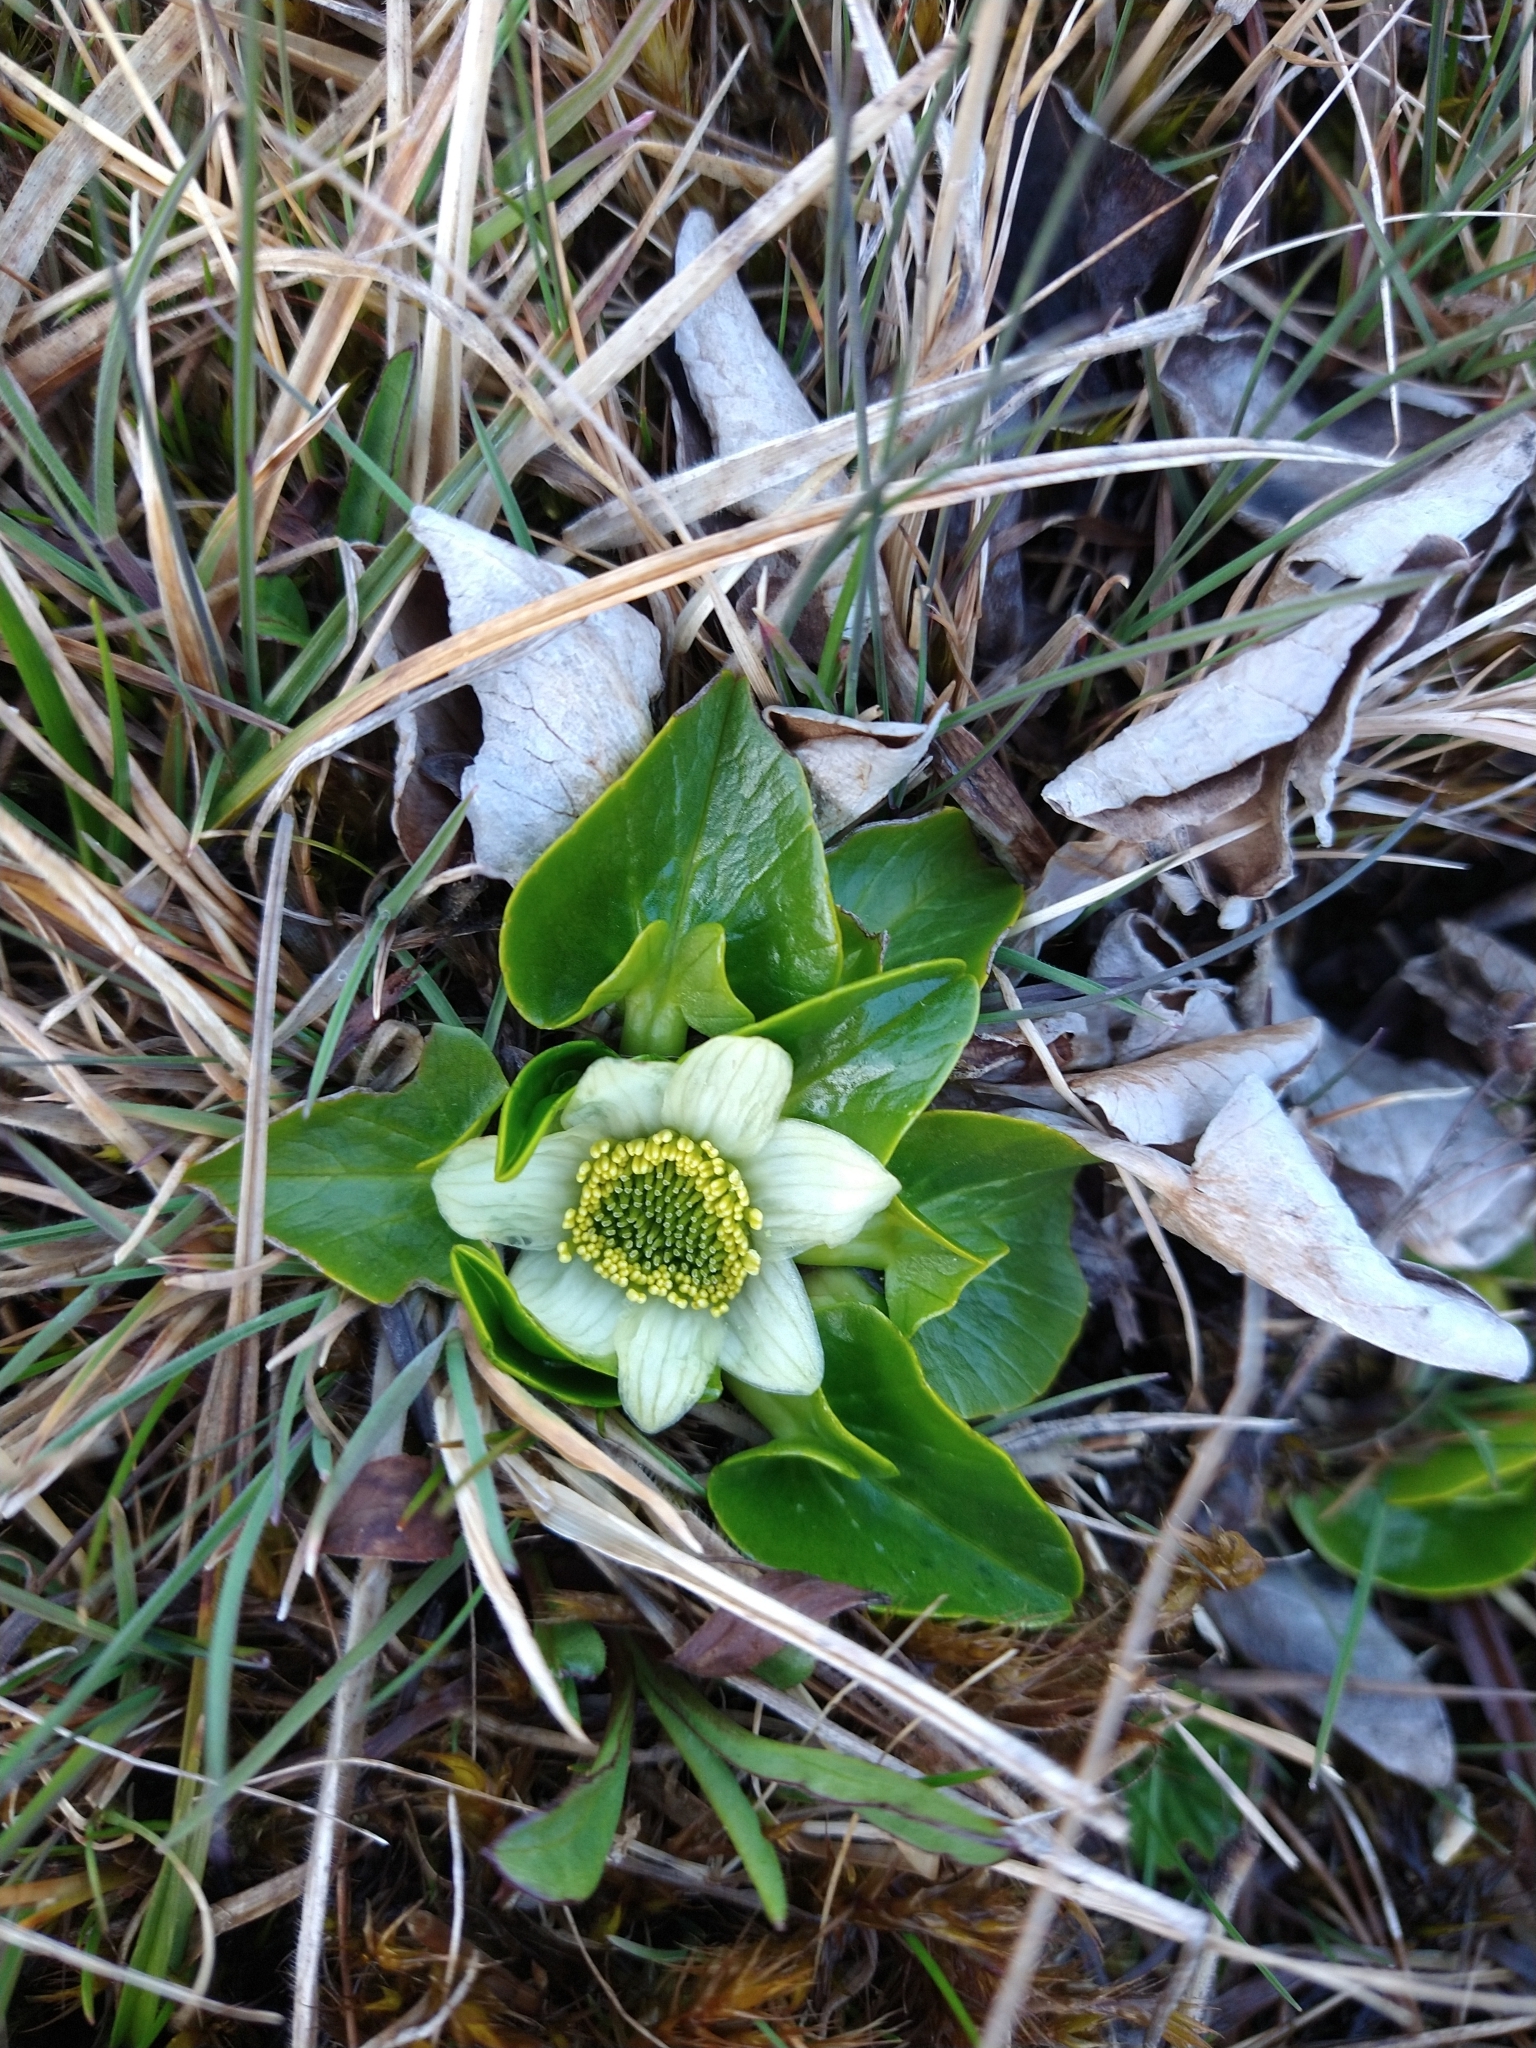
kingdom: Plantae
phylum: Tracheophyta
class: Magnoliopsida
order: Ranunculales
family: Ranunculaceae
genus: Caltha
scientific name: Caltha sagittata
